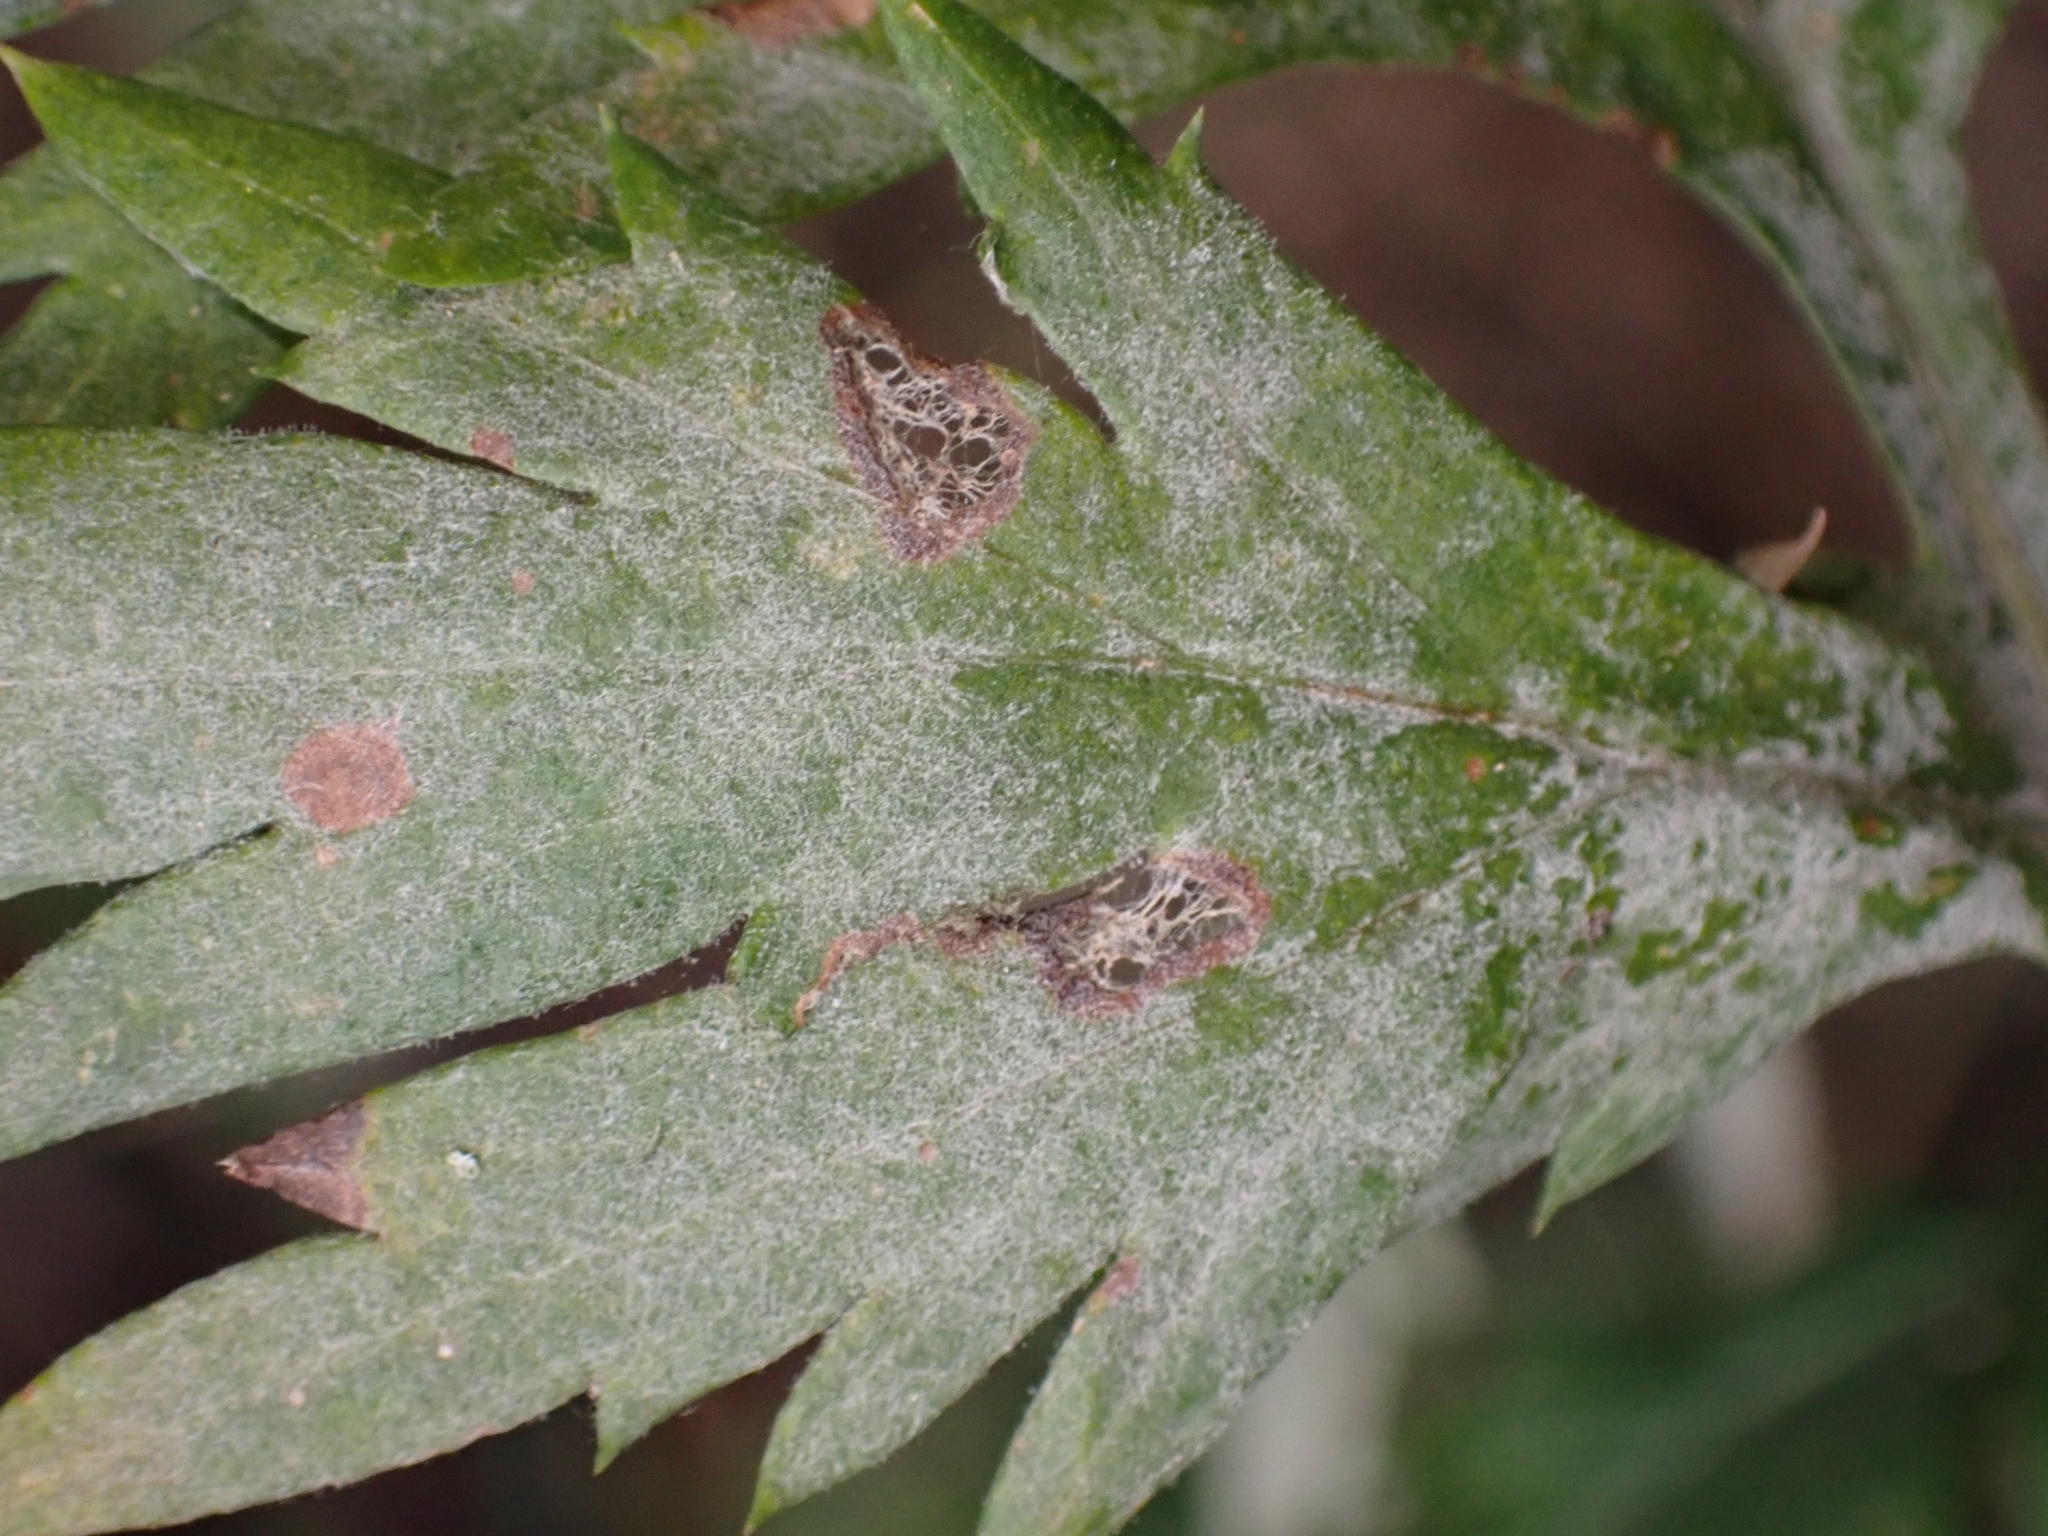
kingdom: Fungi
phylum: Ascomycota
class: Leotiomycetes
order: Helotiales
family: Erysiphaceae
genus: Golovinomyces
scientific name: Golovinomyces artemisiae
